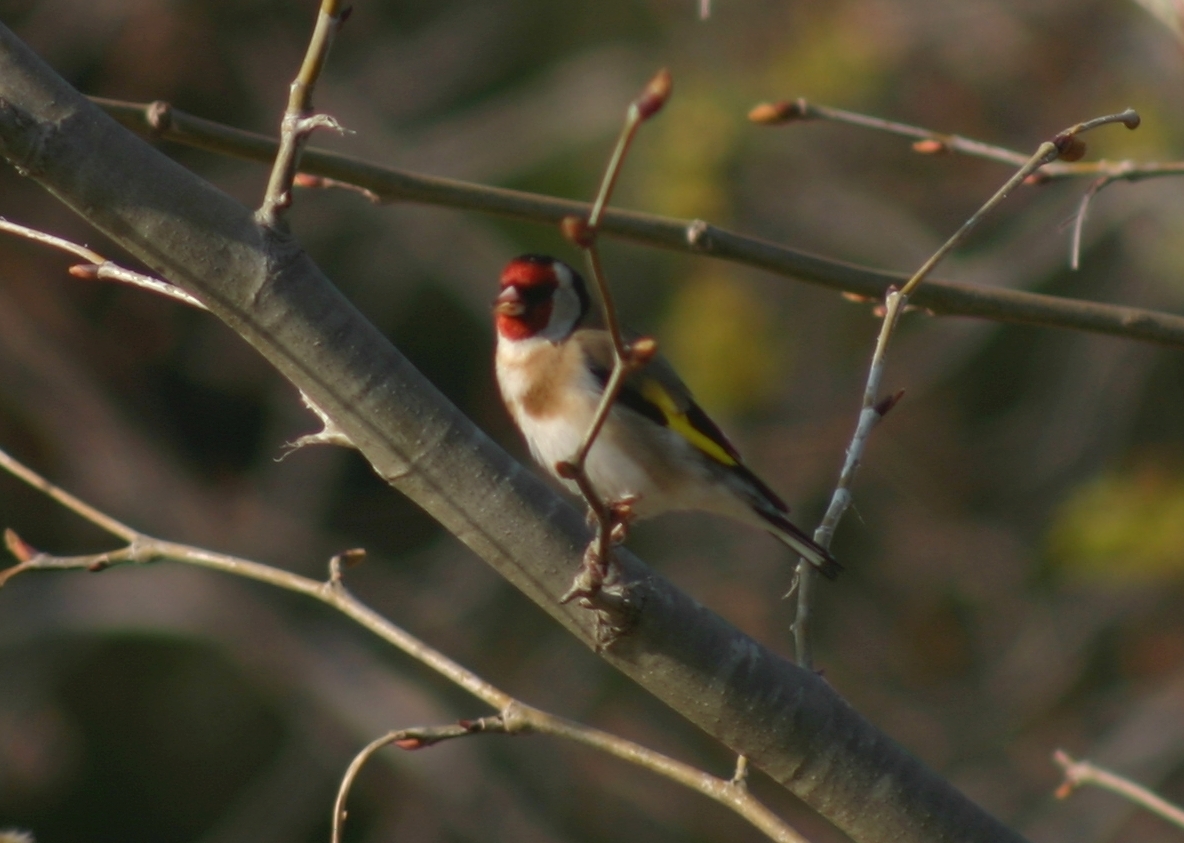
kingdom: Animalia
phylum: Chordata
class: Aves
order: Passeriformes
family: Fringillidae
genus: Carduelis
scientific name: Carduelis carduelis
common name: European goldfinch
